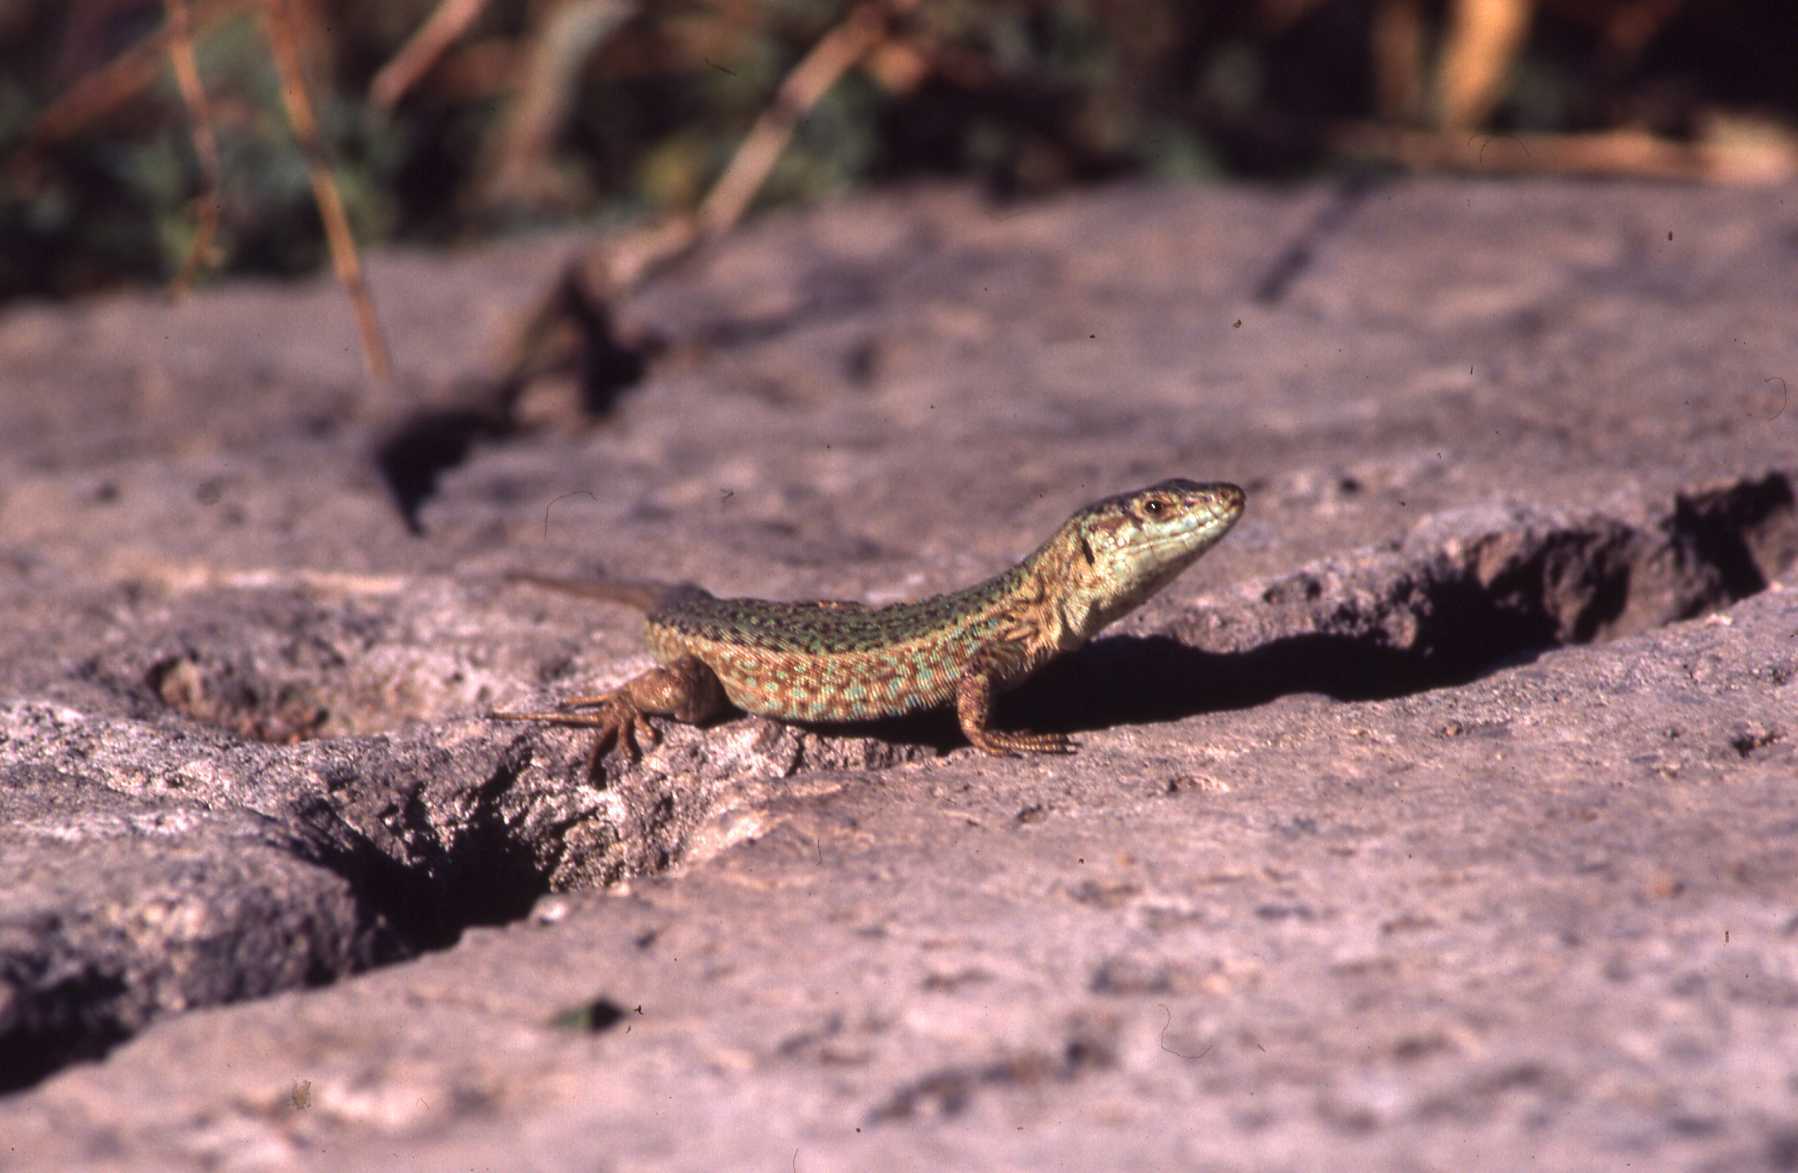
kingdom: Animalia
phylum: Chordata
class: Squamata
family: Lacertidae
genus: Podarcis
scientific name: Podarcis pityusensis
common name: Ibiza wall lizard
